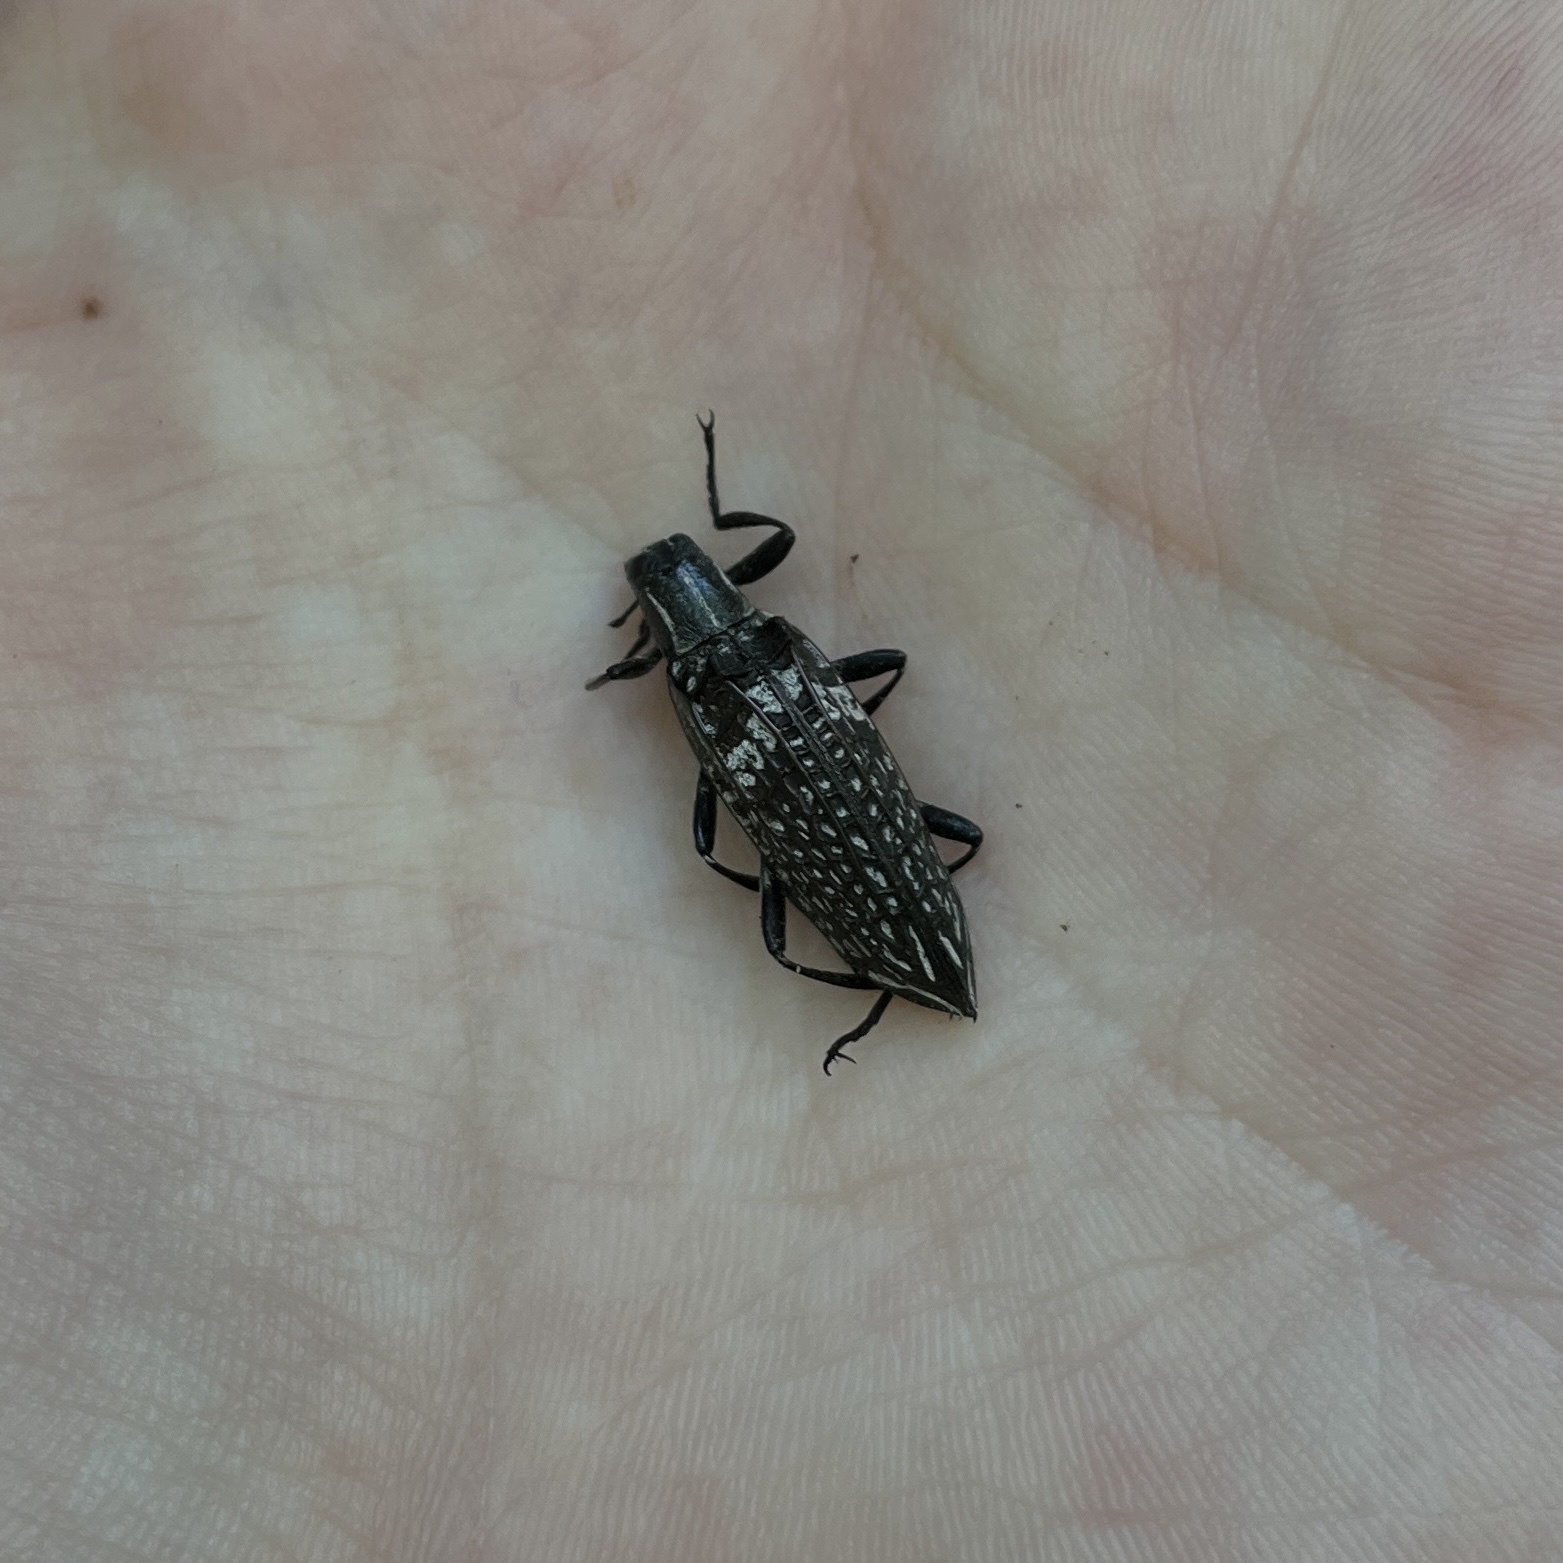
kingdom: Animalia
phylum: Arthropoda
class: Insecta
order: Coleoptera
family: Tenebrionidae
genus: Homocyrtus
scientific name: Homocyrtus
